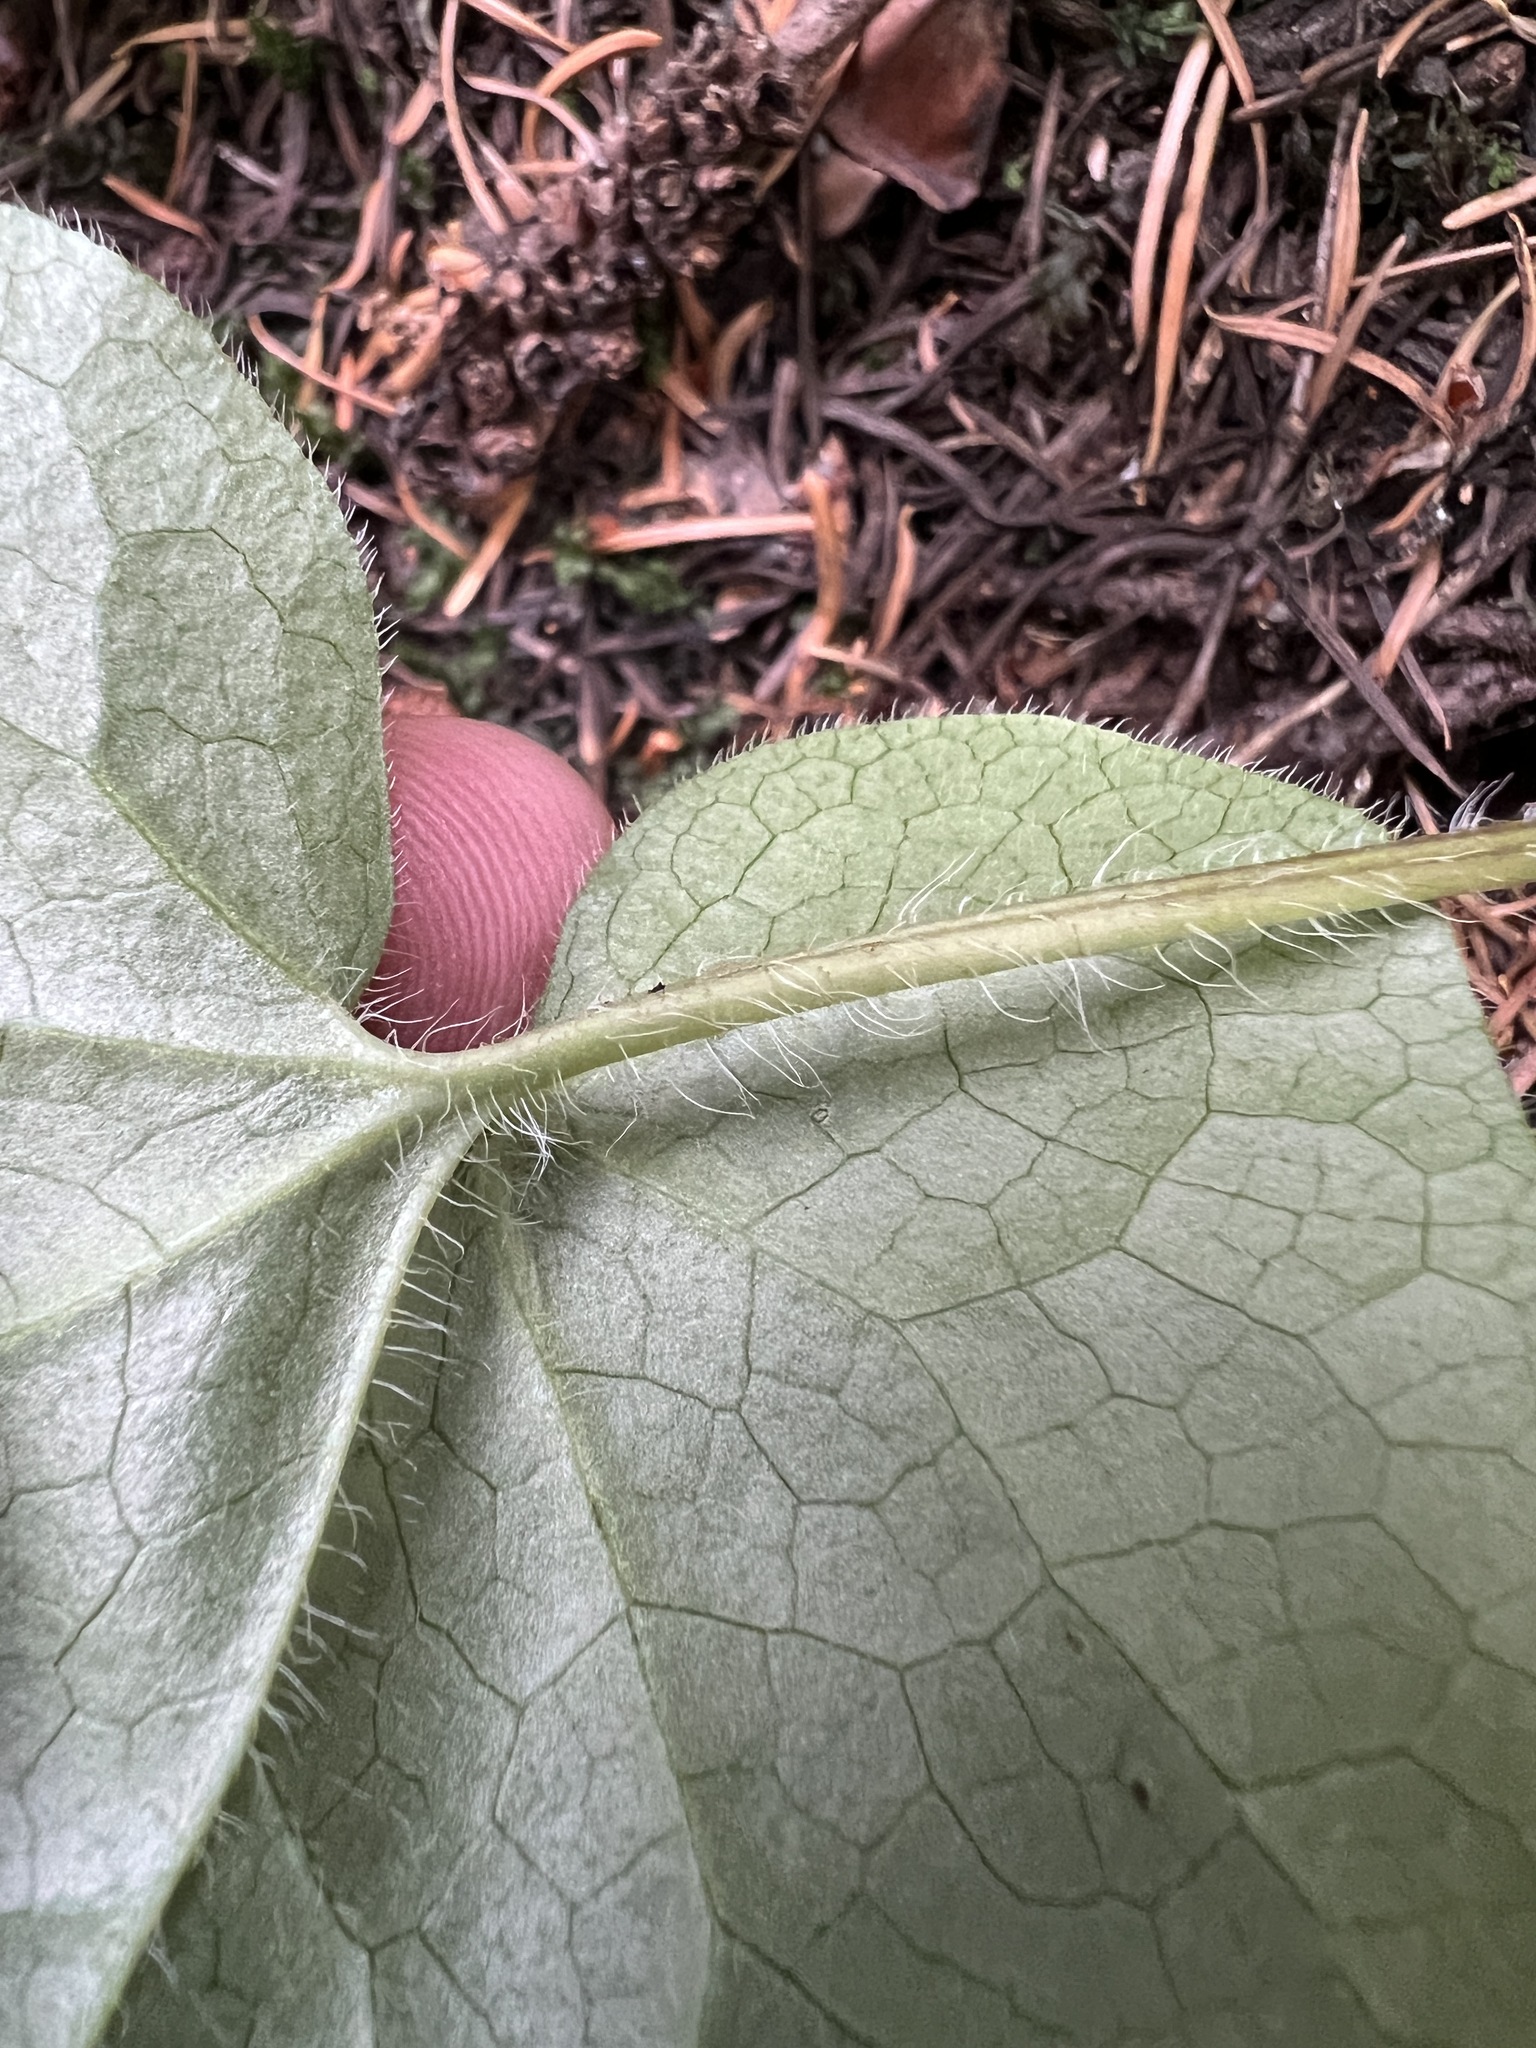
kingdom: Plantae
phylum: Tracheophyta
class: Magnoliopsida
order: Piperales
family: Aristolochiaceae
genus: Asarum
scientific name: Asarum caudatum
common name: Wild ginger
